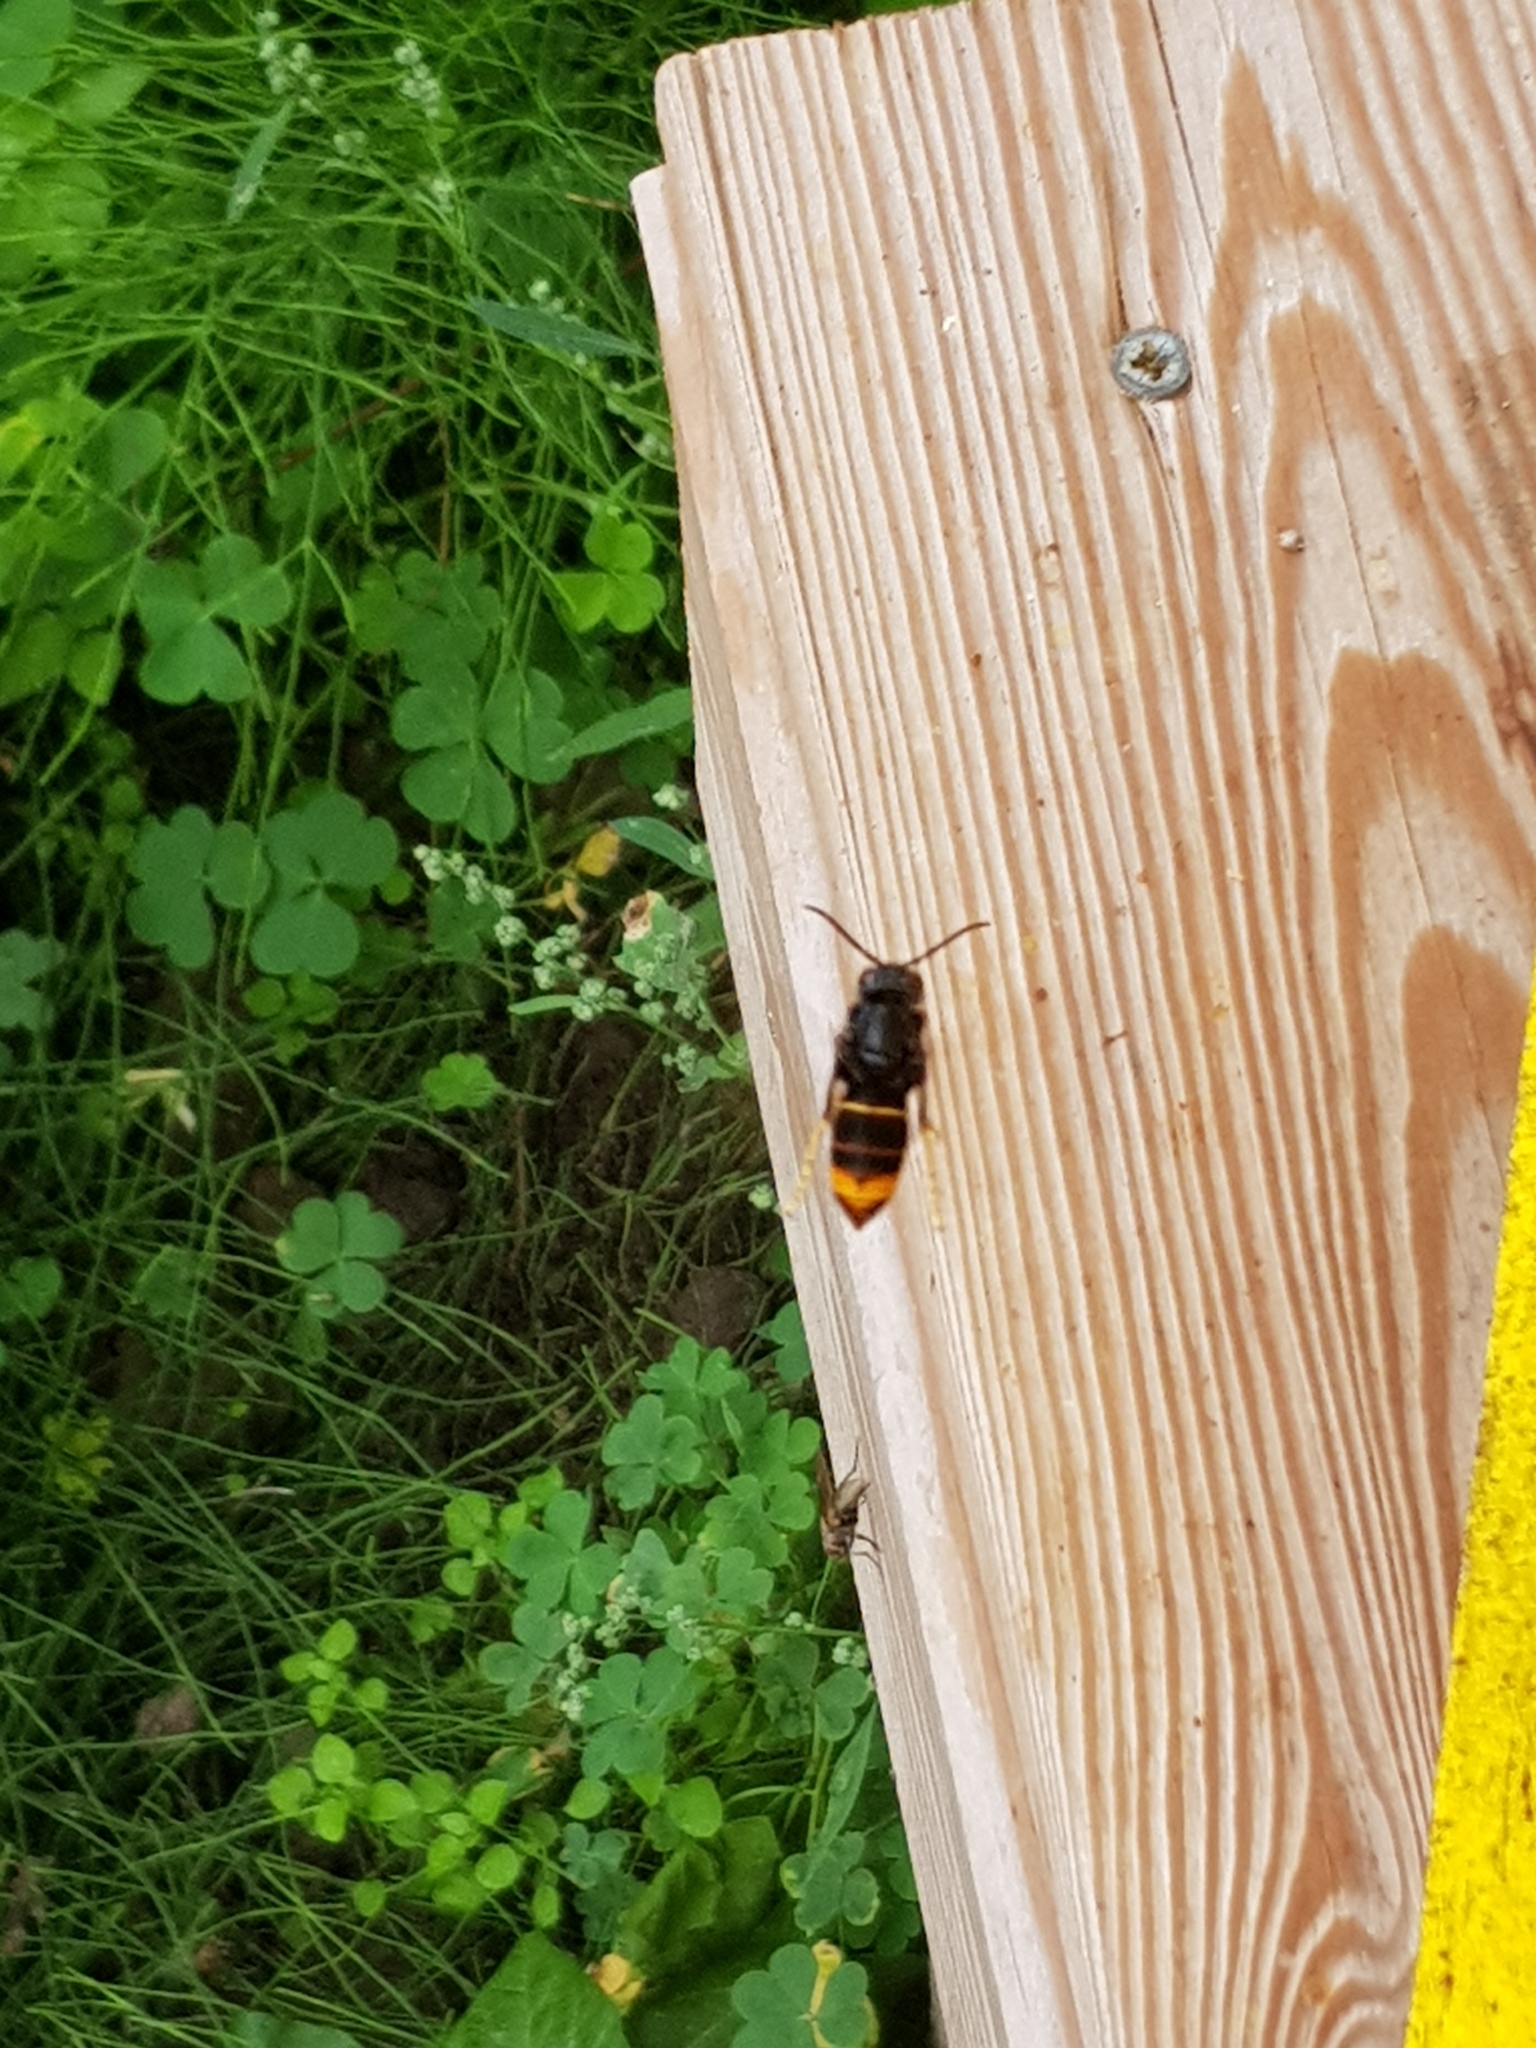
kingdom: Animalia
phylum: Arthropoda
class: Insecta
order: Hymenoptera
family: Vespidae
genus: Vespa
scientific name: Vespa velutina
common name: Asian hornet
